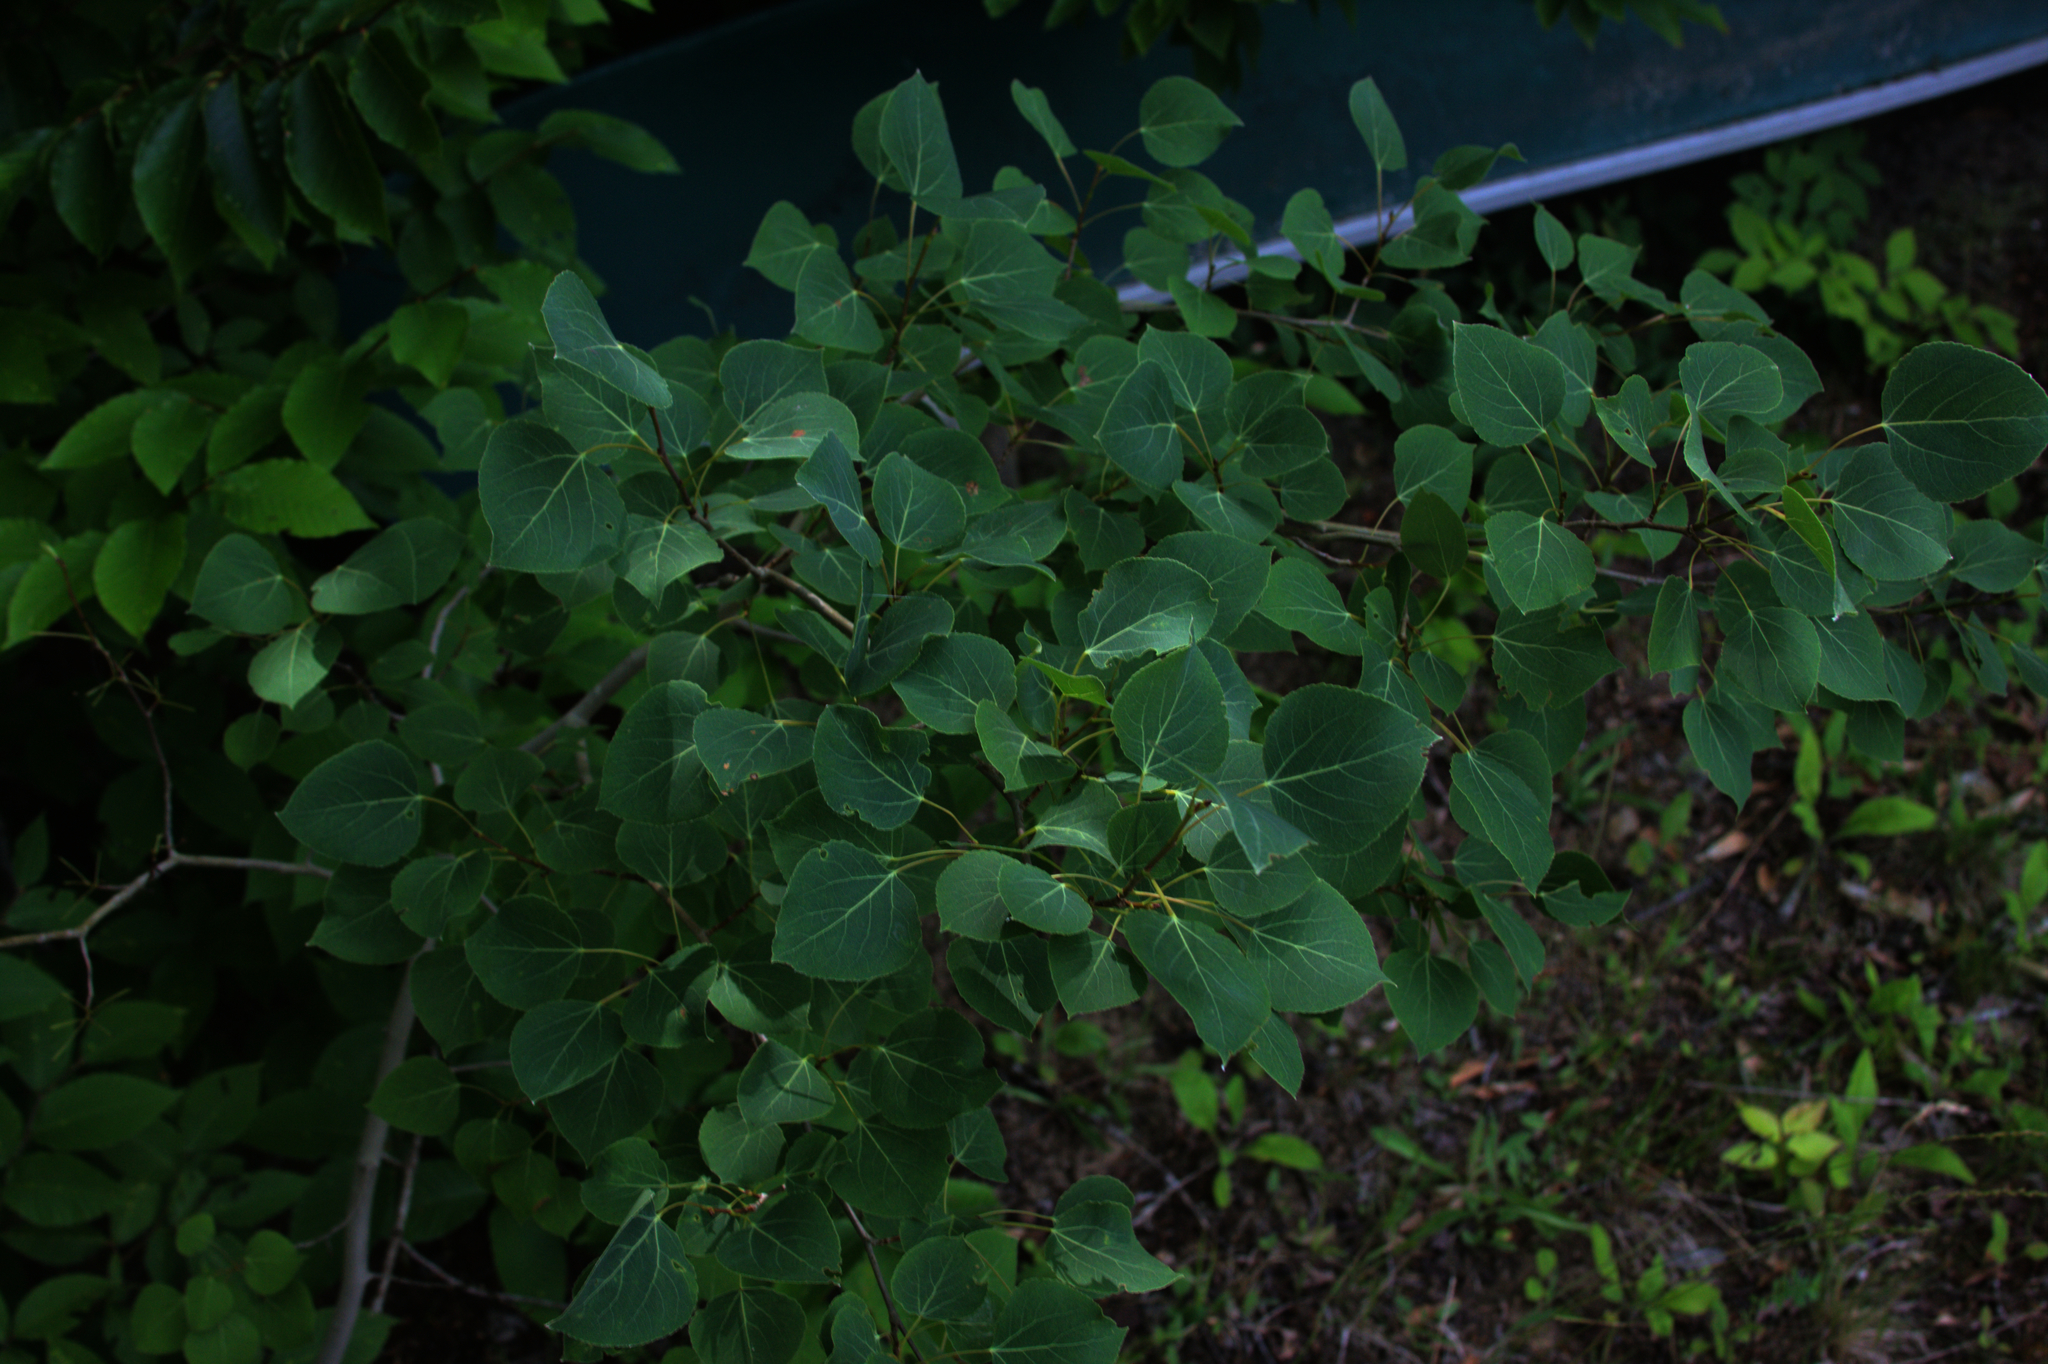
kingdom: Plantae
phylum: Tracheophyta
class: Magnoliopsida
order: Malpighiales
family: Salicaceae
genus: Populus
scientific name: Populus tremuloides
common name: Quaking aspen
